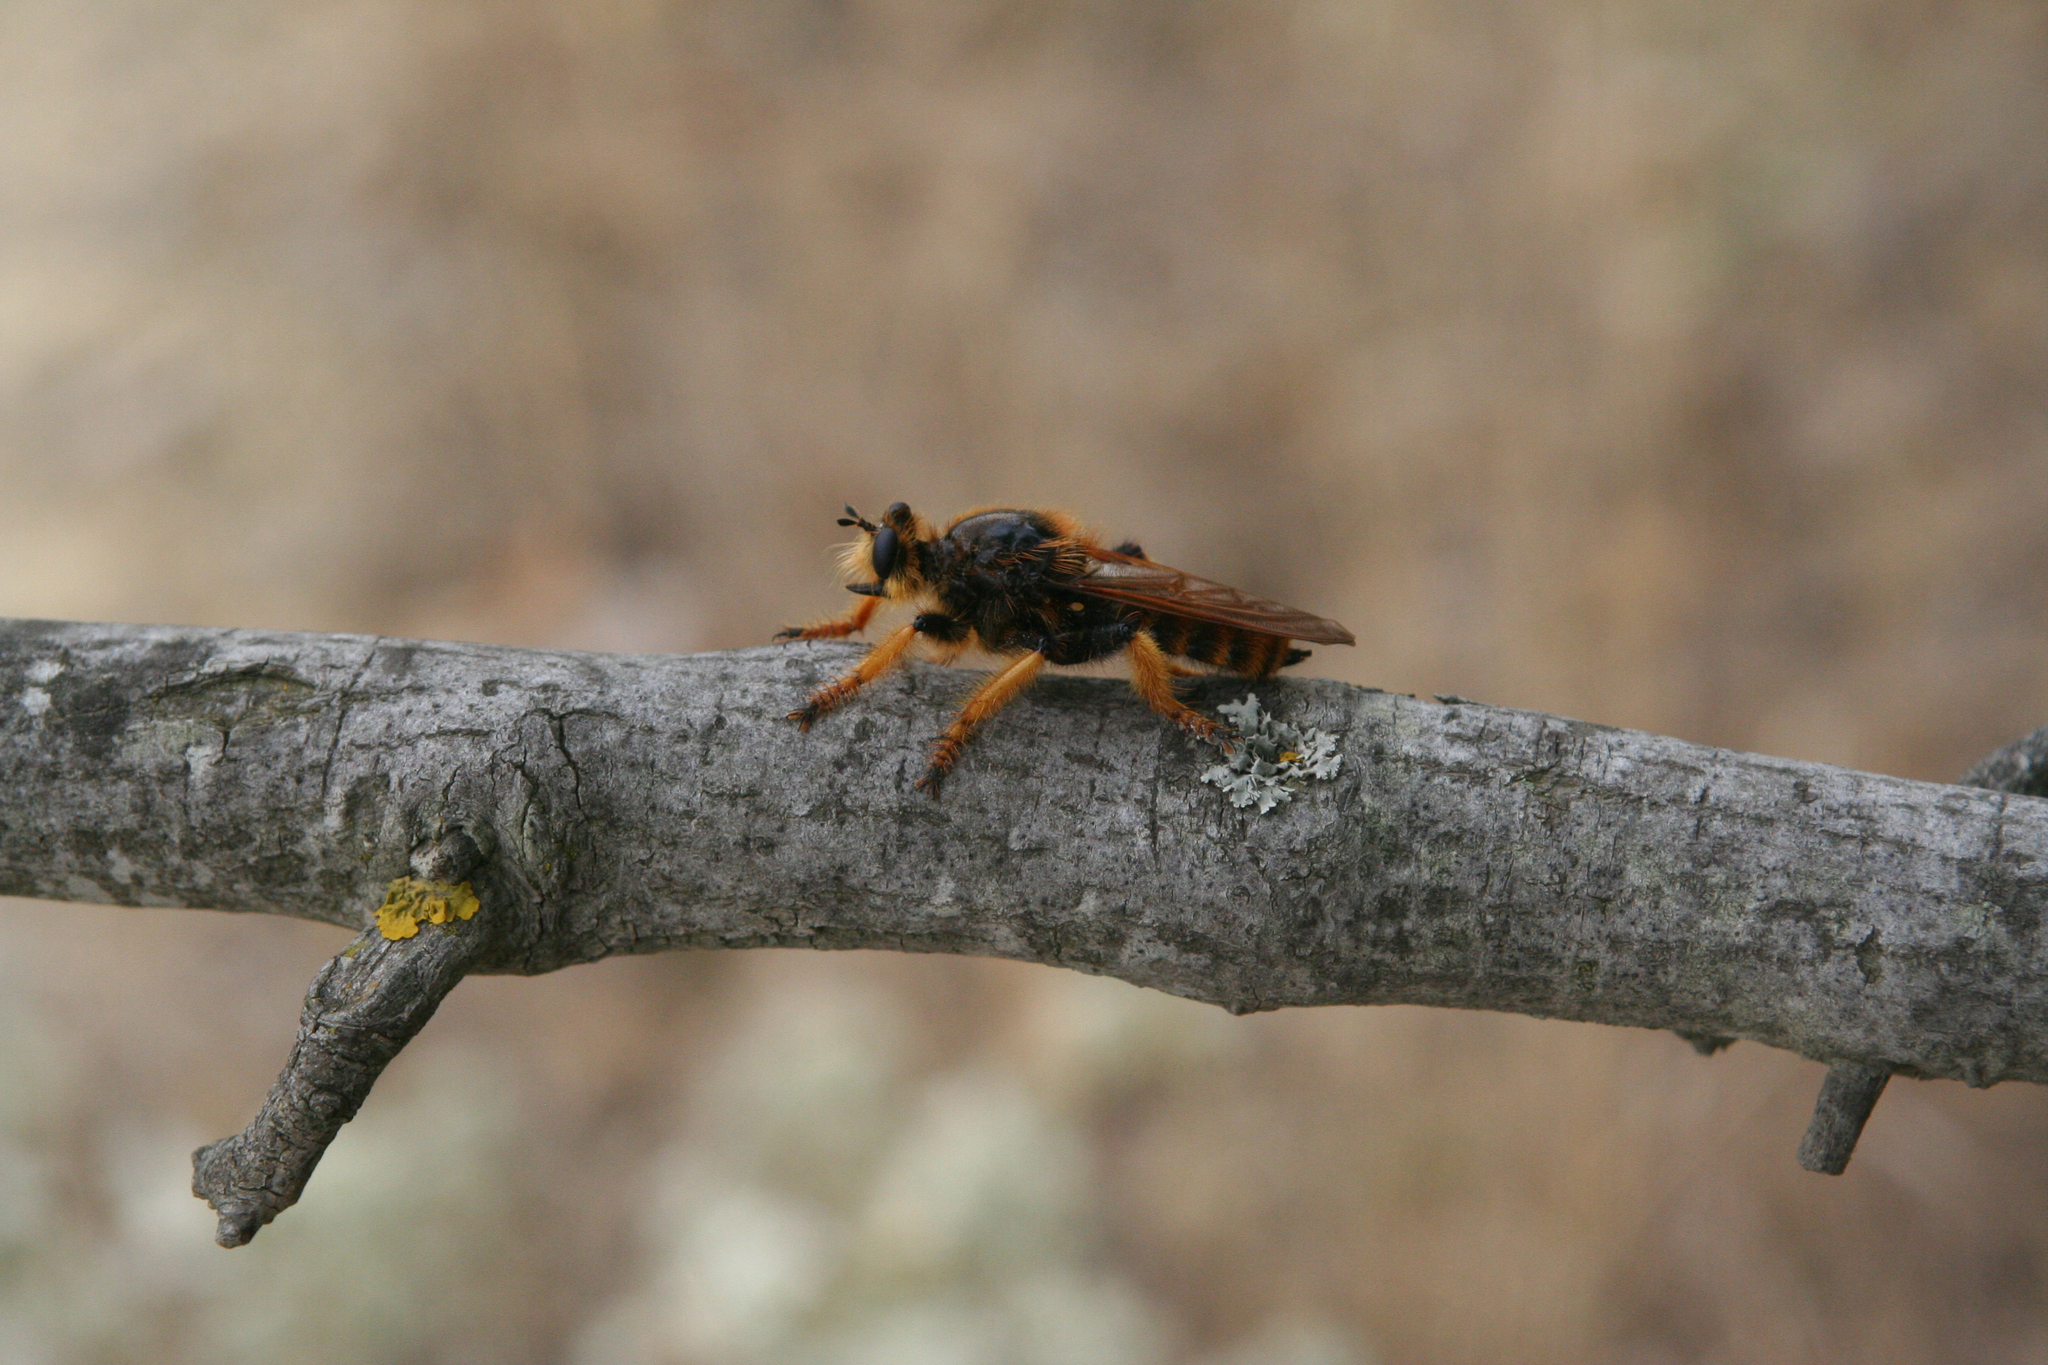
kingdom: Animalia
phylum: Arthropoda
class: Insecta
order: Diptera
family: Asilidae
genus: Pogonosoma
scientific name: Pogonosoma maroccanum
